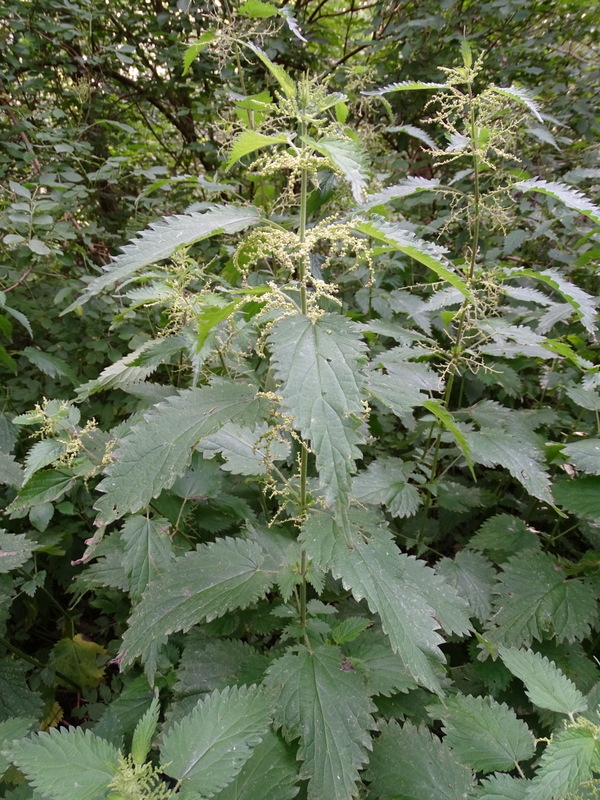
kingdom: Plantae
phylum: Tracheophyta
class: Magnoliopsida
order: Rosales
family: Urticaceae
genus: Urtica
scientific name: Urtica dioica
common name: Common nettle
